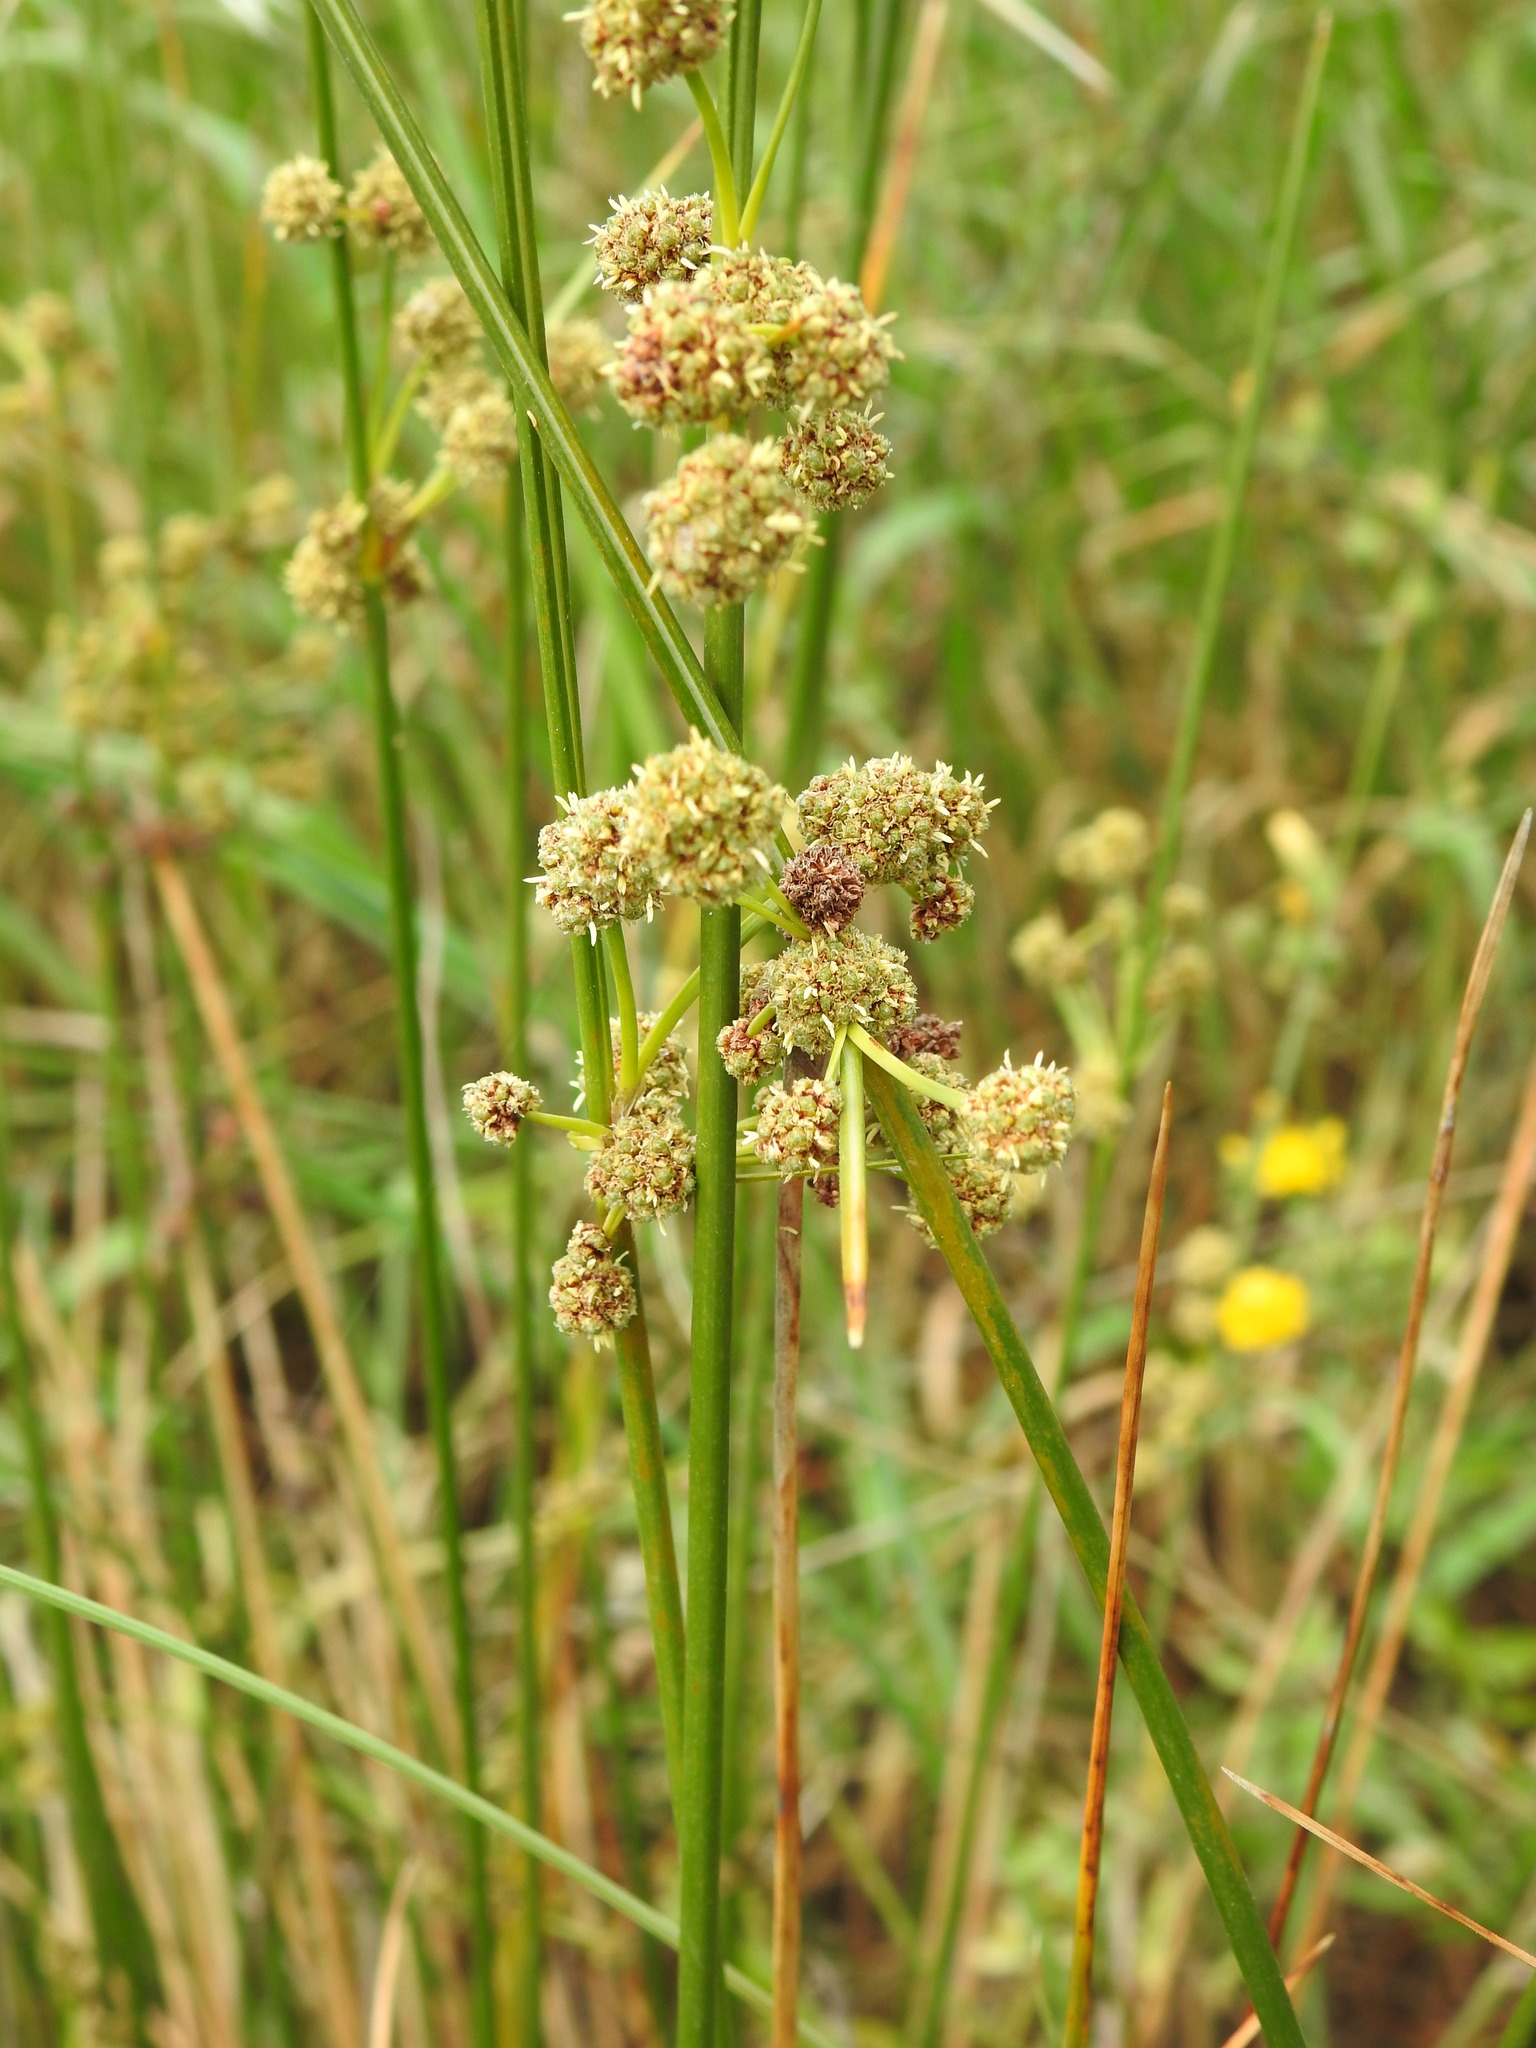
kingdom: Plantae
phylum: Tracheophyta
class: Liliopsida
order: Poales
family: Cyperaceae
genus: Scirpoides
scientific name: Scirpoides holoschoenus
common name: Round-headed club-rush
